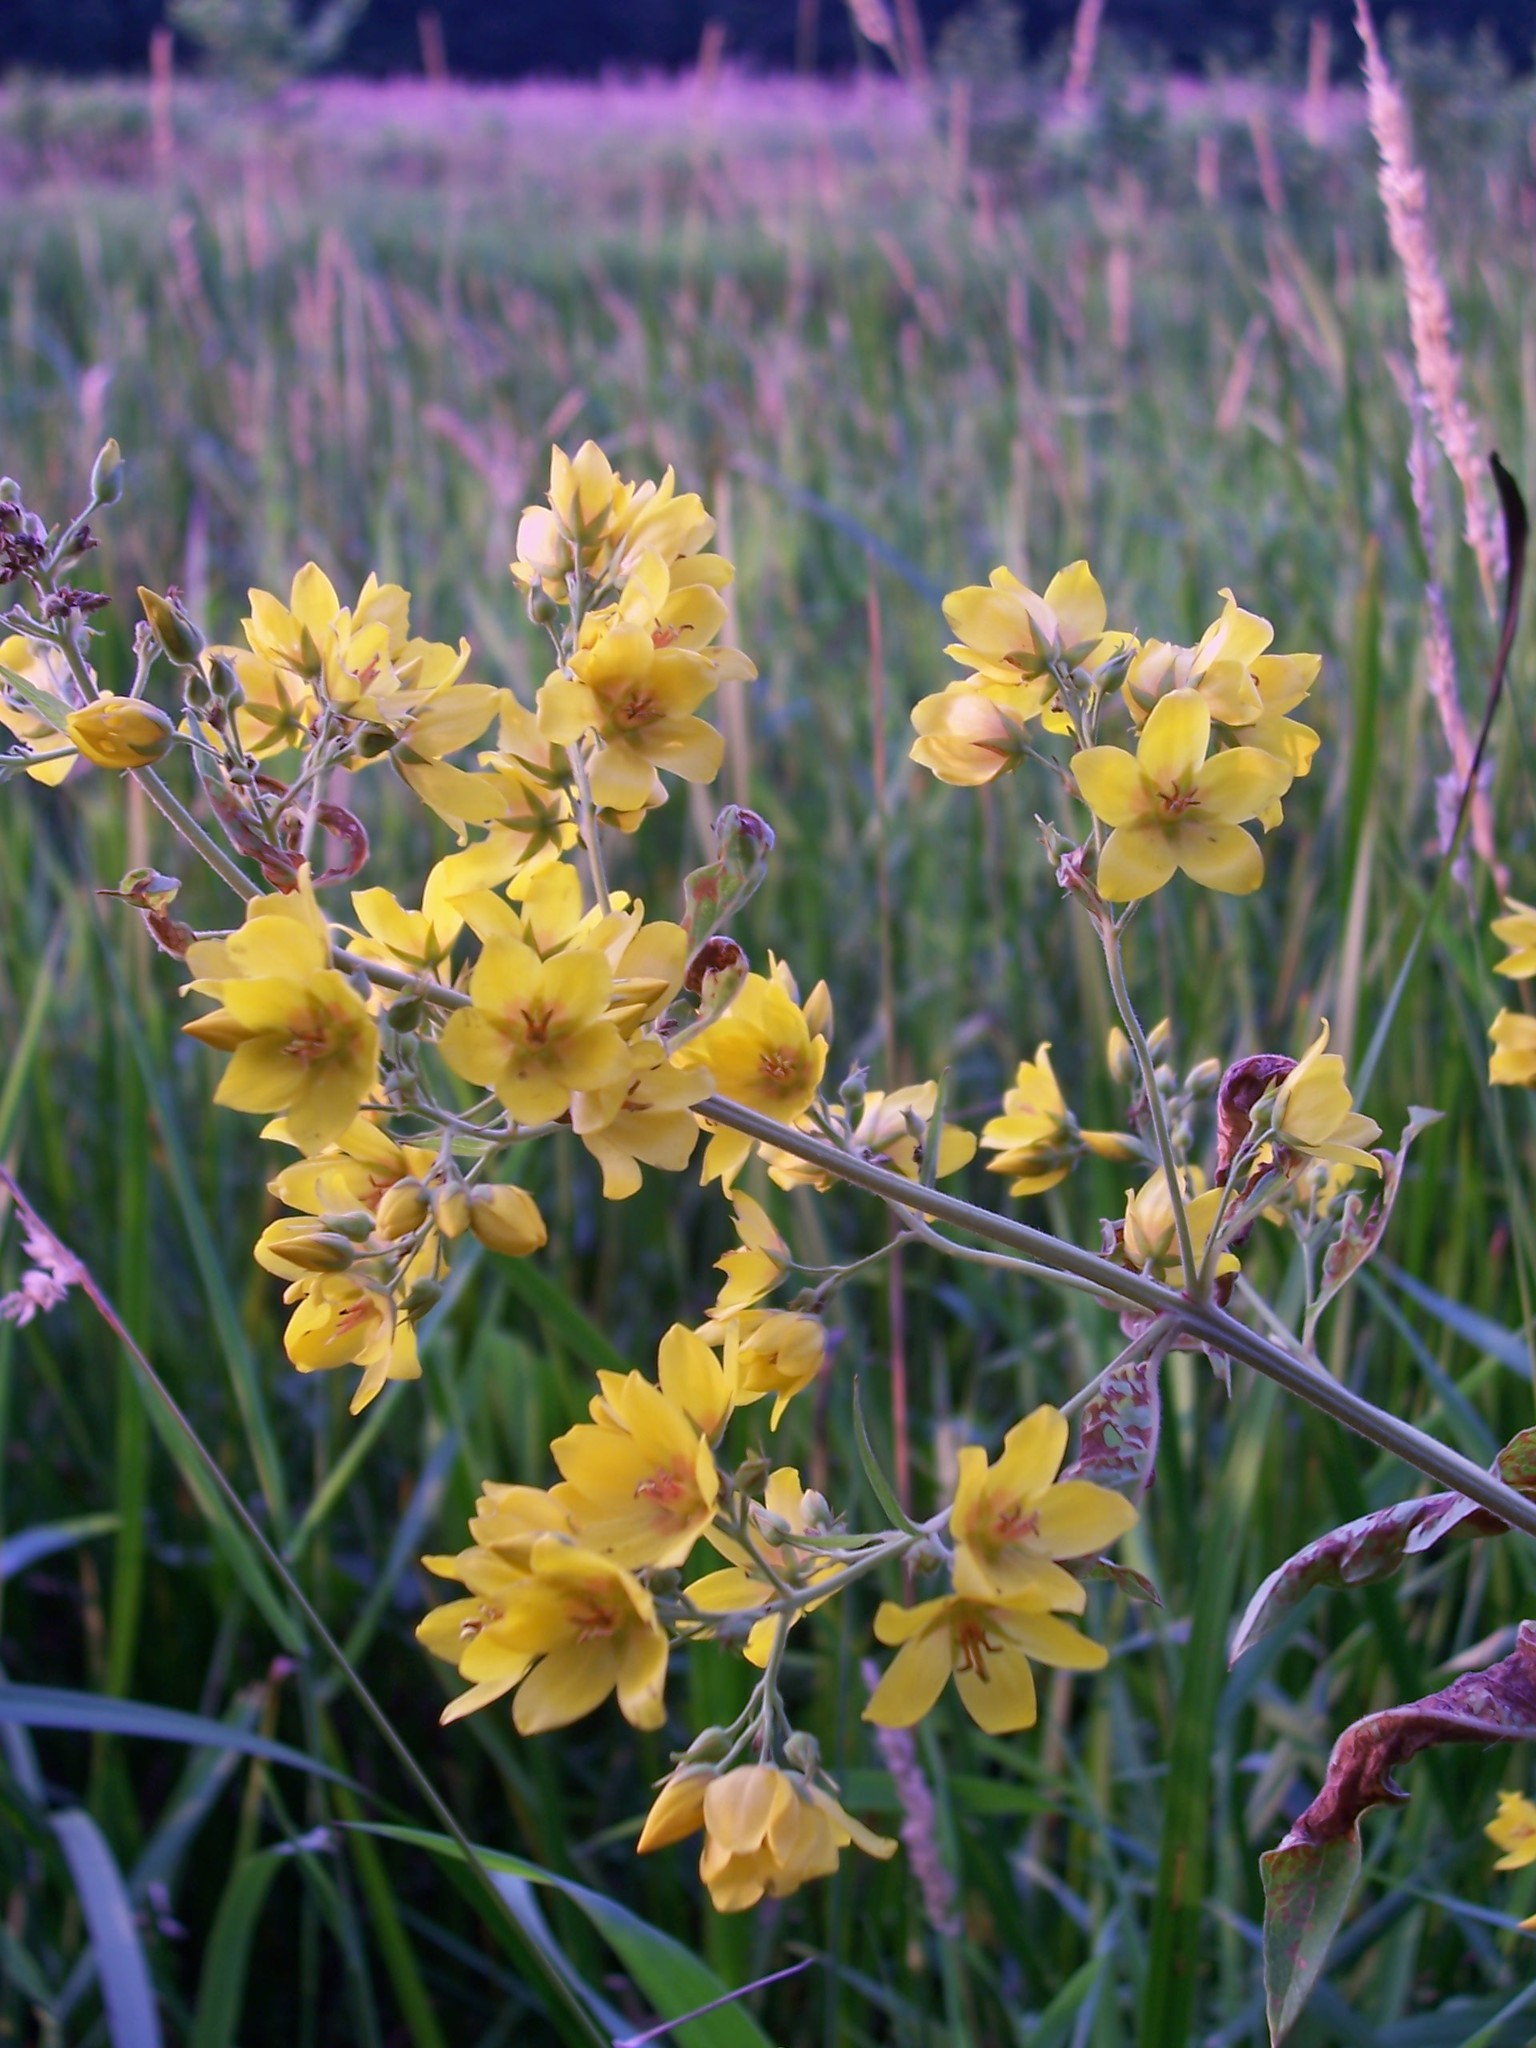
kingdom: Plantae
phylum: Tracheophyta
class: Magnoliopsida
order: Ericales
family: Primulaceae
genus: Lysimachia
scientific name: Lysimachia vulgaris
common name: Yellow loosestrife
